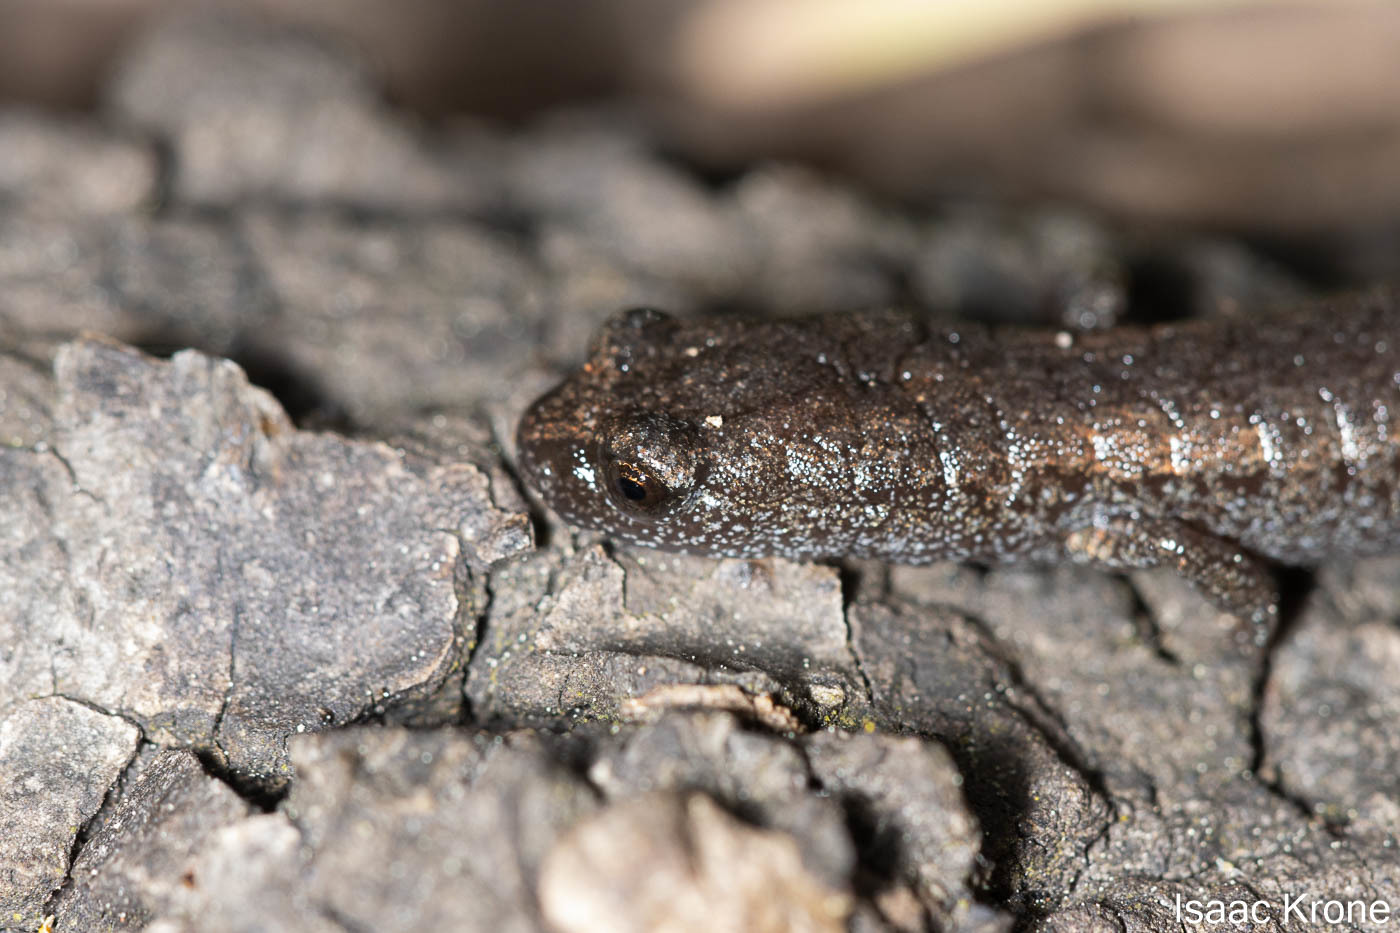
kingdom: Animalia
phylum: Chordata
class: Amphibia
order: Caudata
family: Plethodontidae
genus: Batrachoseps
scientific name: Batrachoseps attenuatus
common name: California slender salamander
